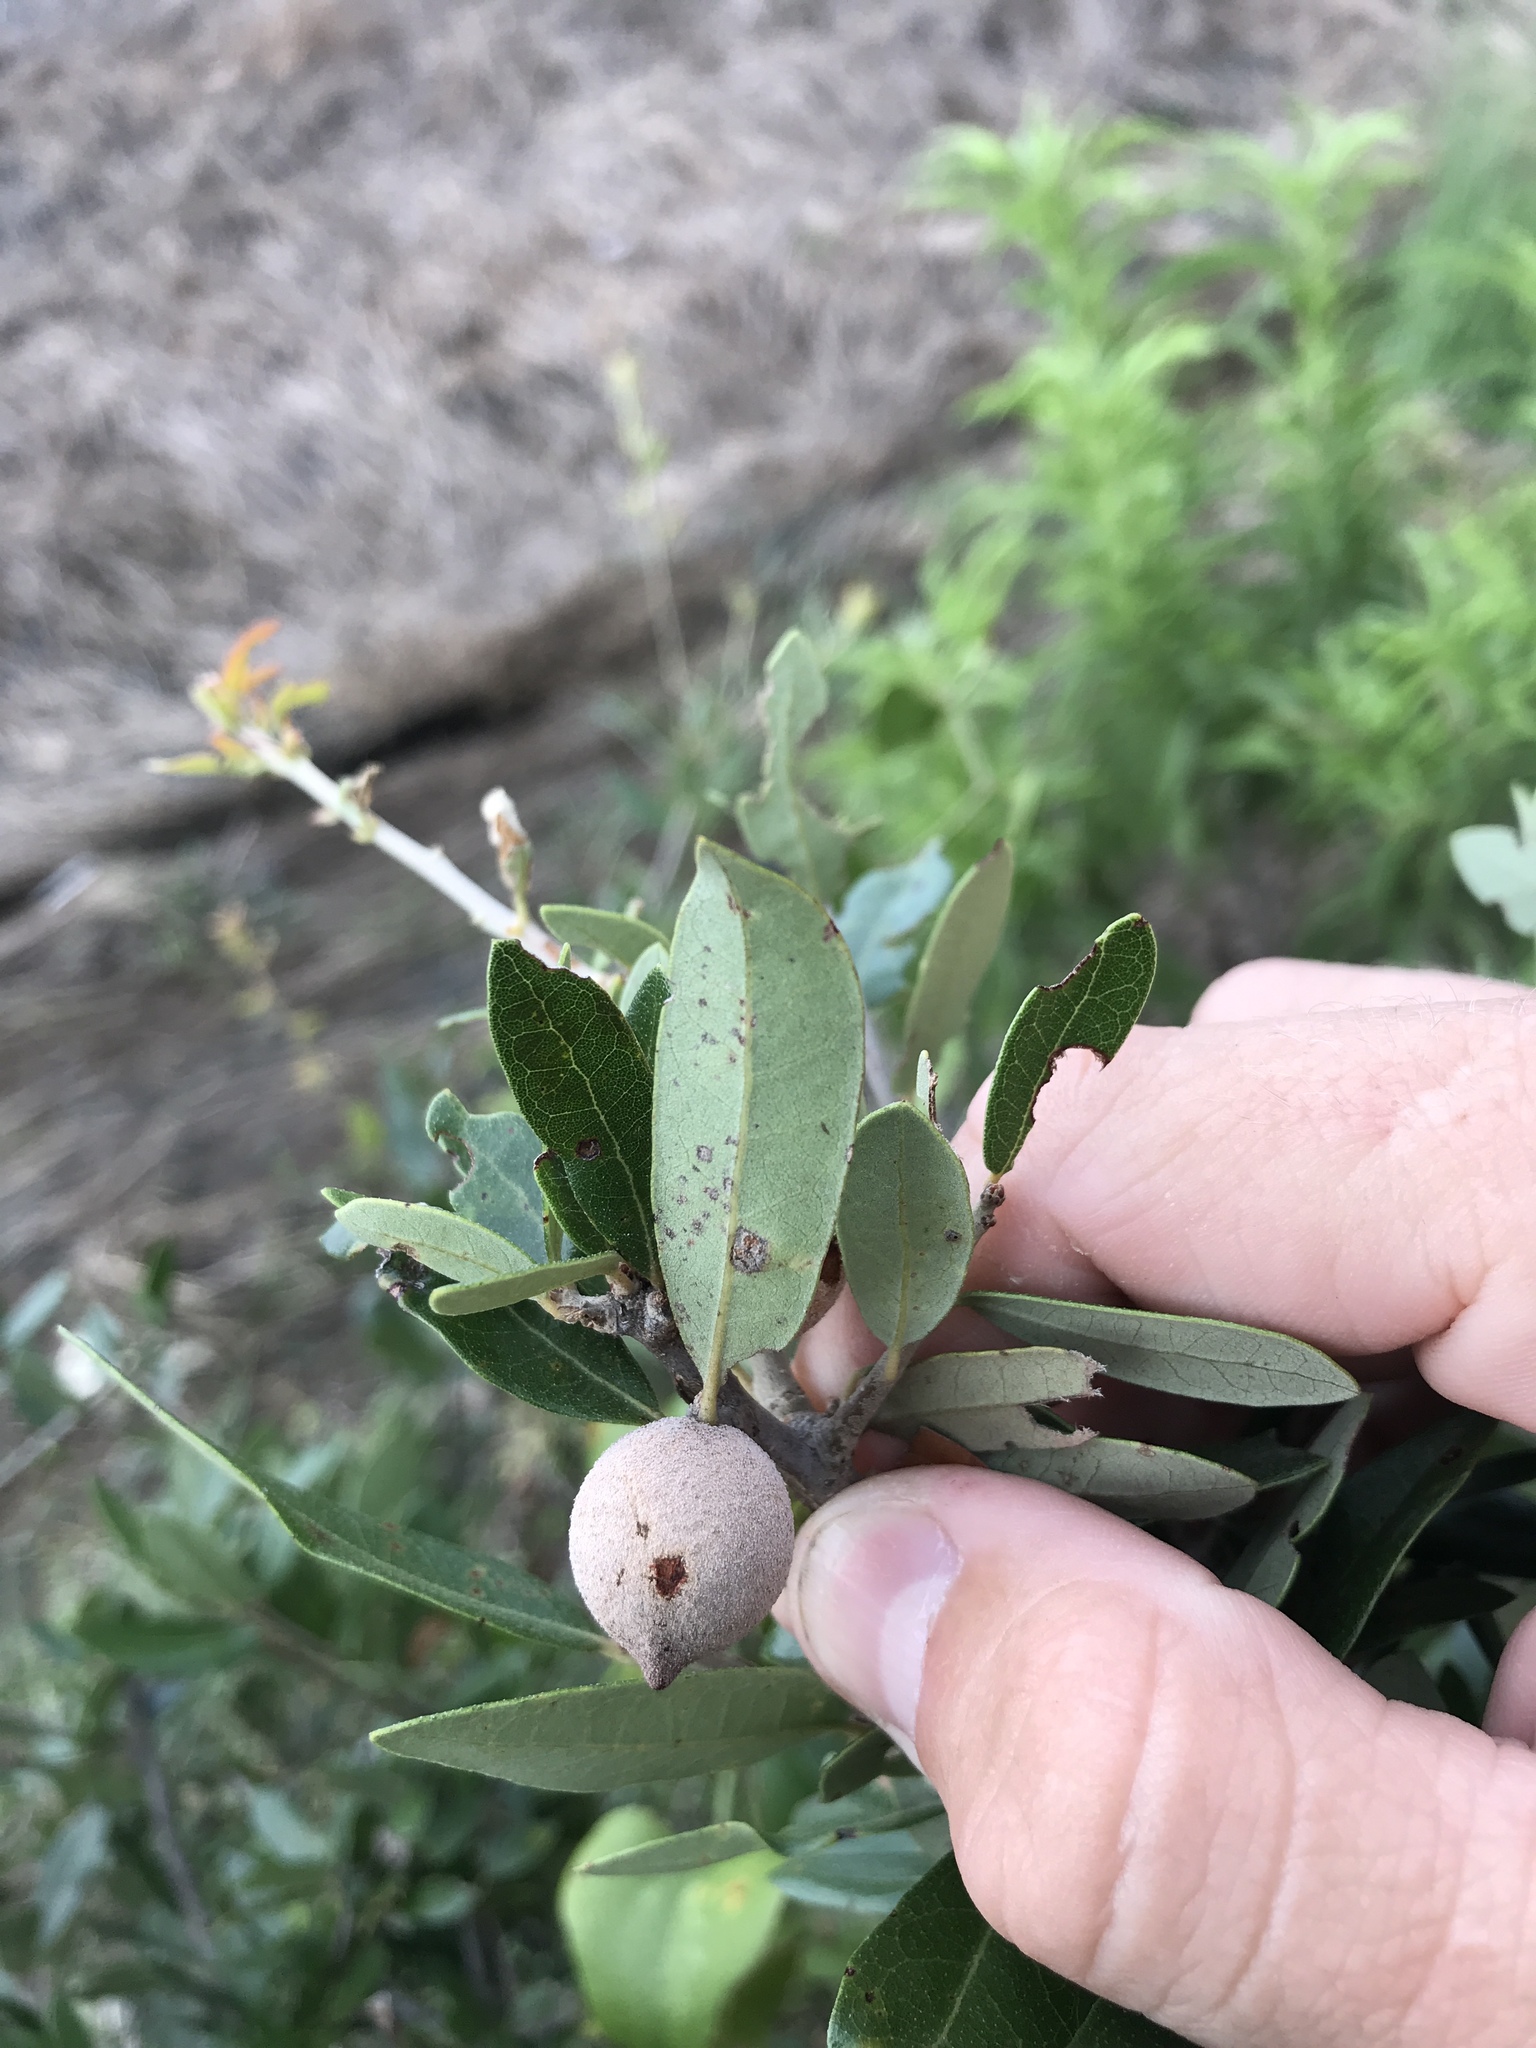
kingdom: Animalia
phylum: Arthropoda
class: Insecta
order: Hymenoptera
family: Cynipidae
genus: Disholcaspis
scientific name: Disholcaspis
